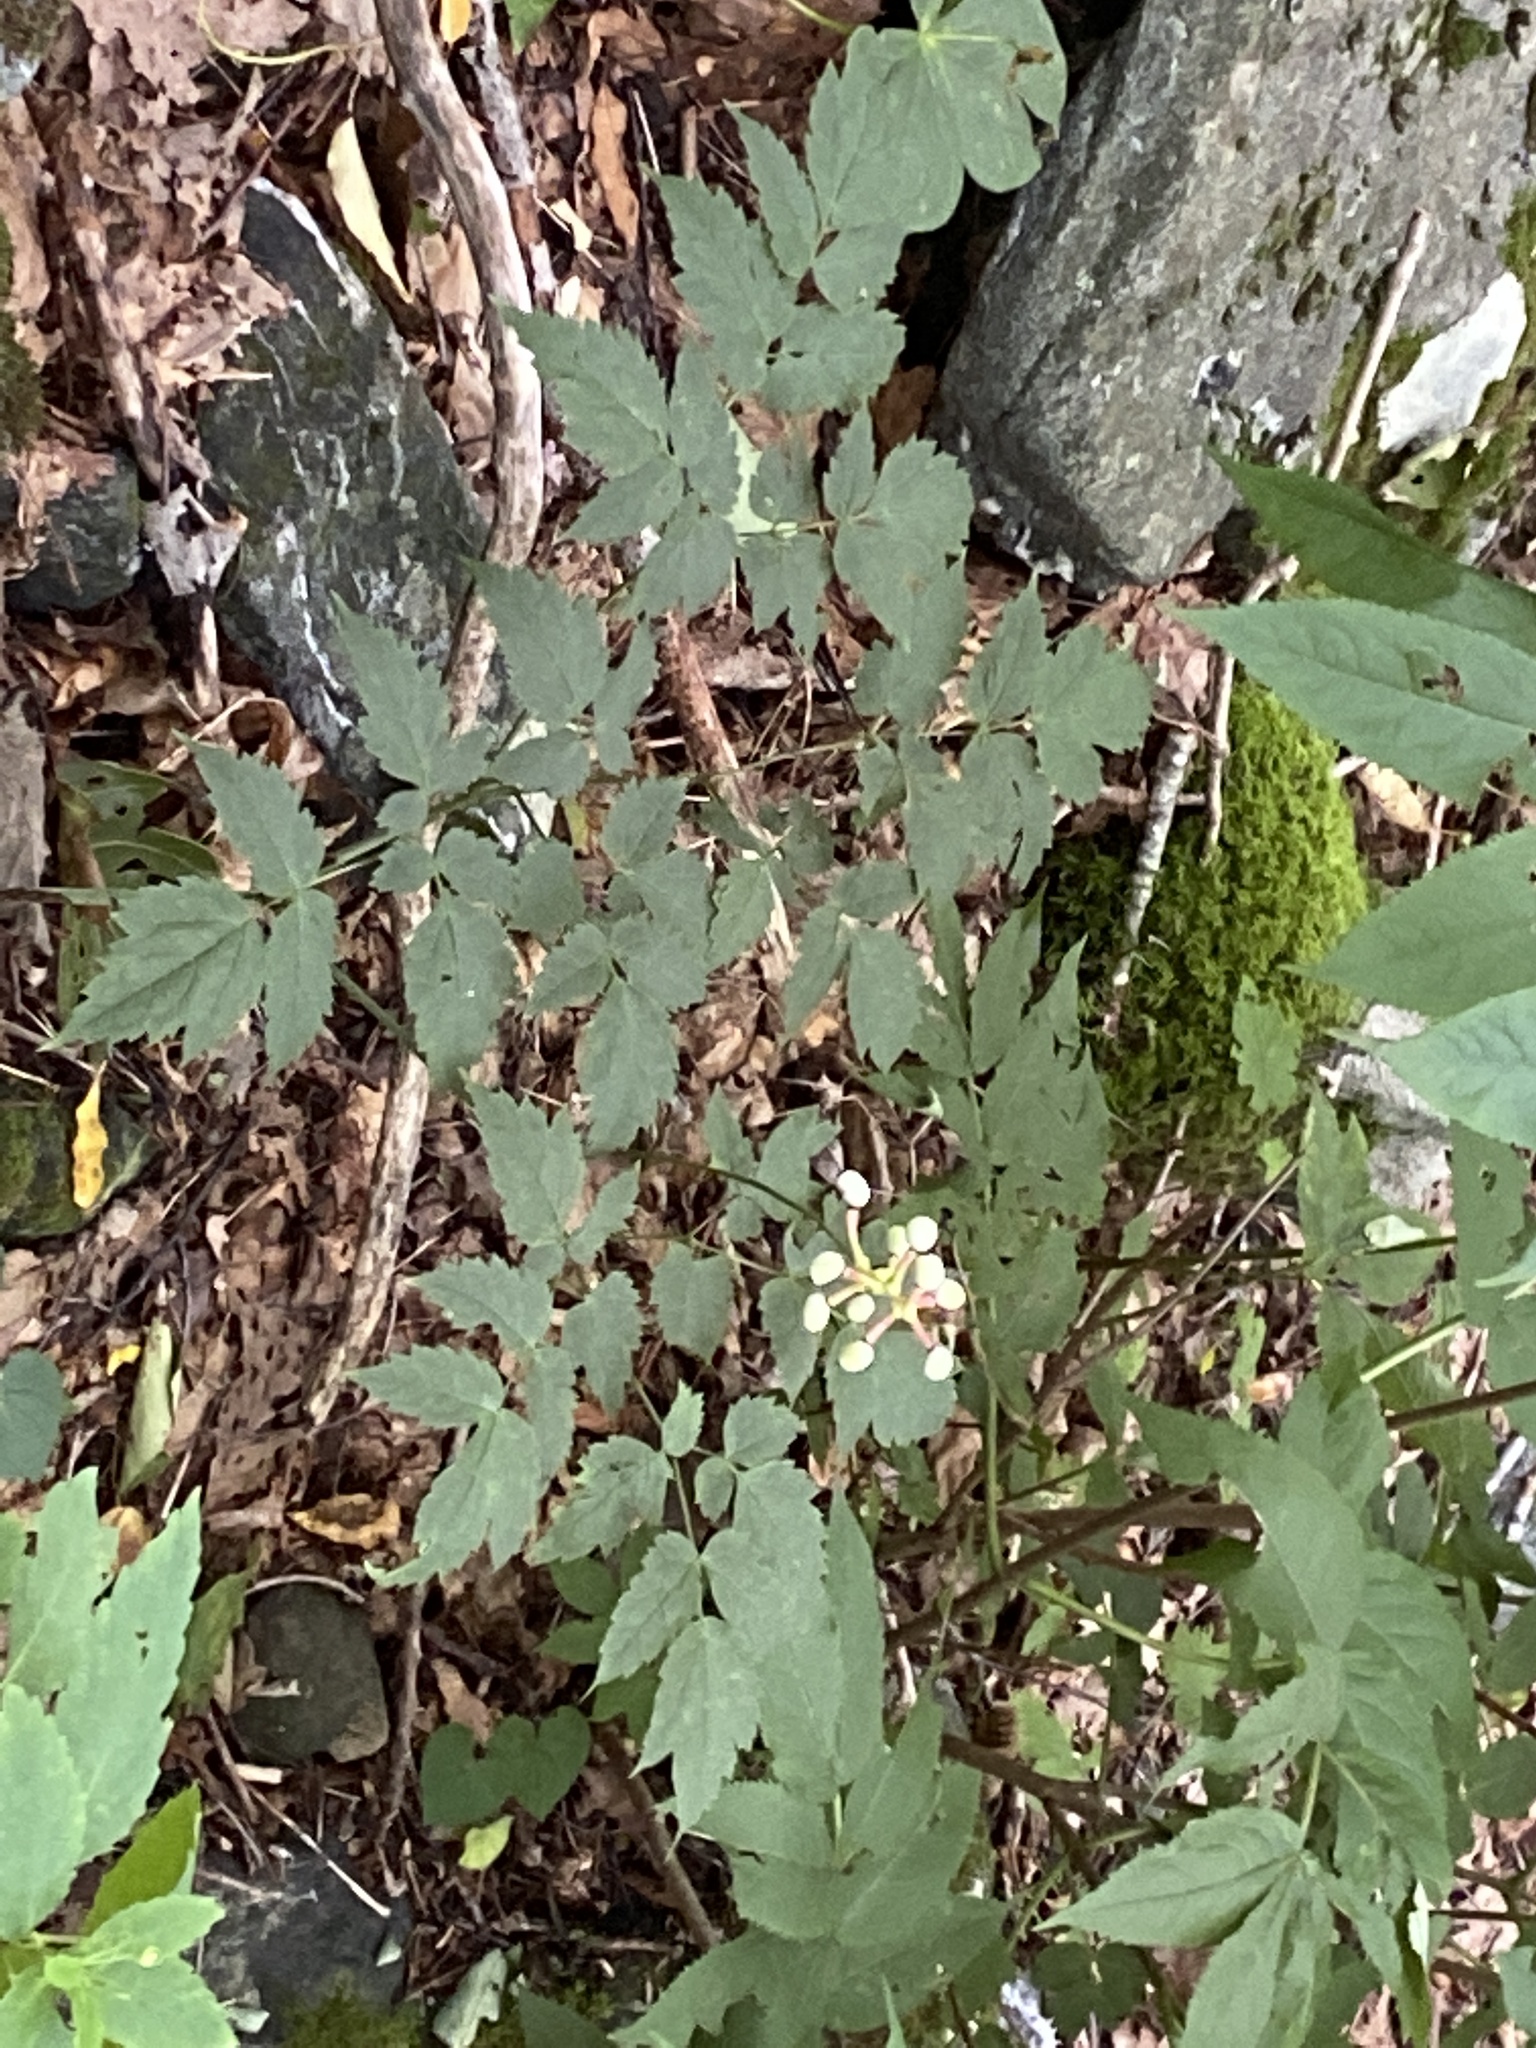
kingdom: Plantae
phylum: Tracheophyta
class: Magnoliopsida
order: Ranunculales
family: Ranunculaceae
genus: Actaea
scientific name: Actaea pachypoda
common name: Doll's-eyes
